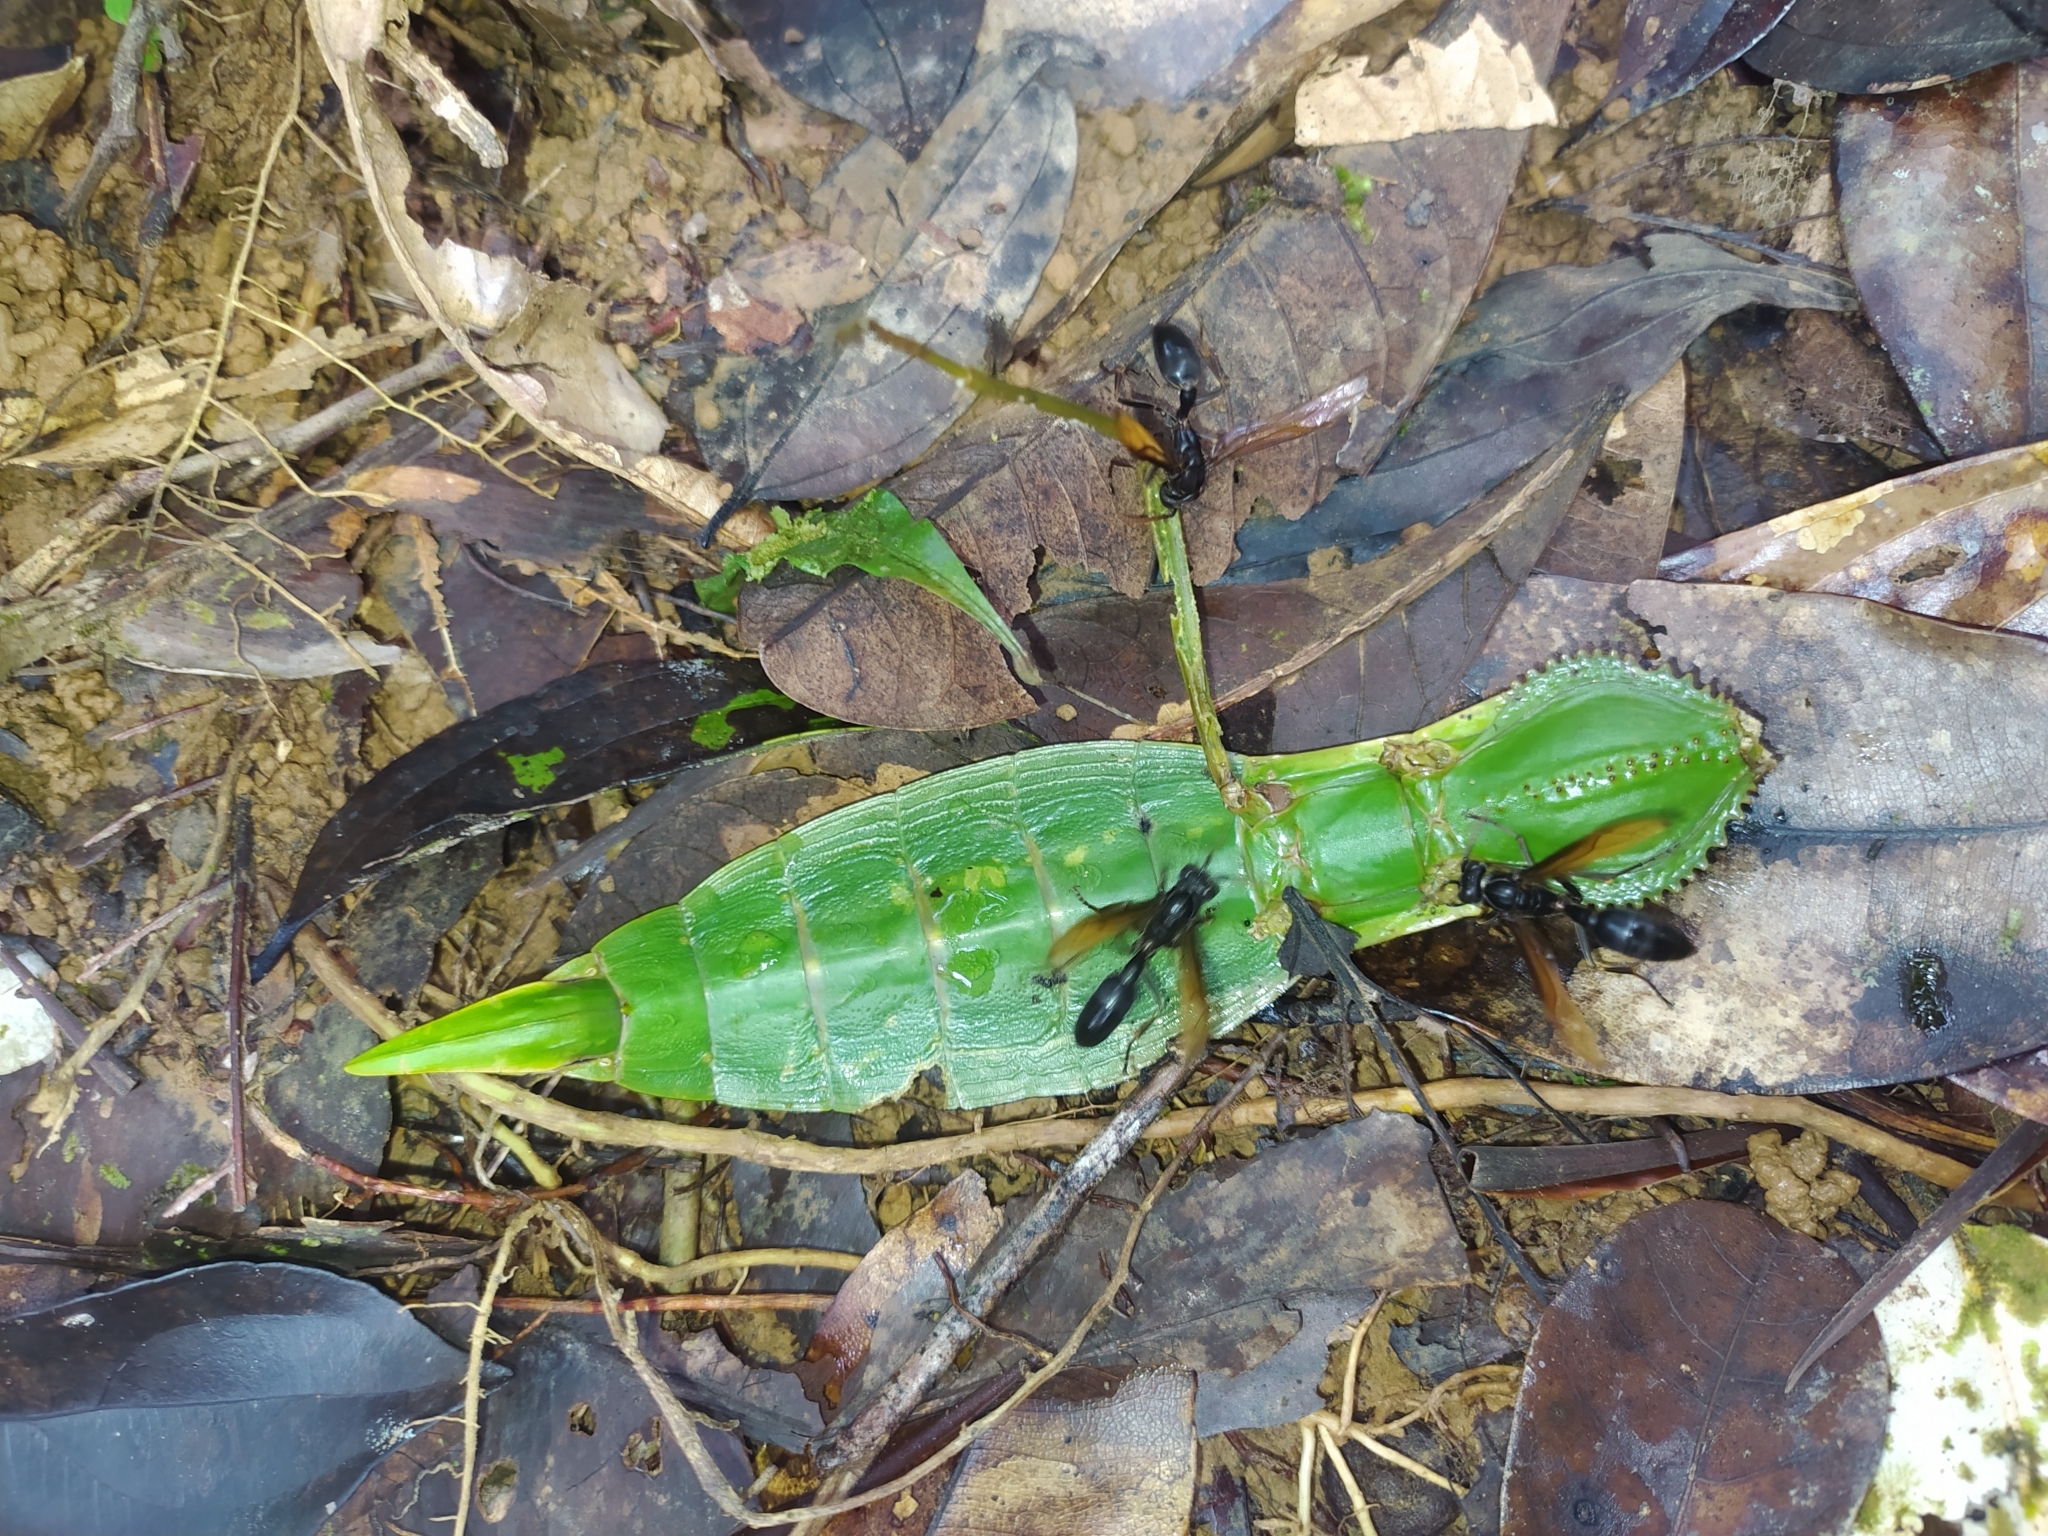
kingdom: Animalia
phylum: Arthropoda
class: Insecta
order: Phasmida
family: Phasmatidae
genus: Cranidium
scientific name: Cranidium gibbosum
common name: Hump-backed stick insect
